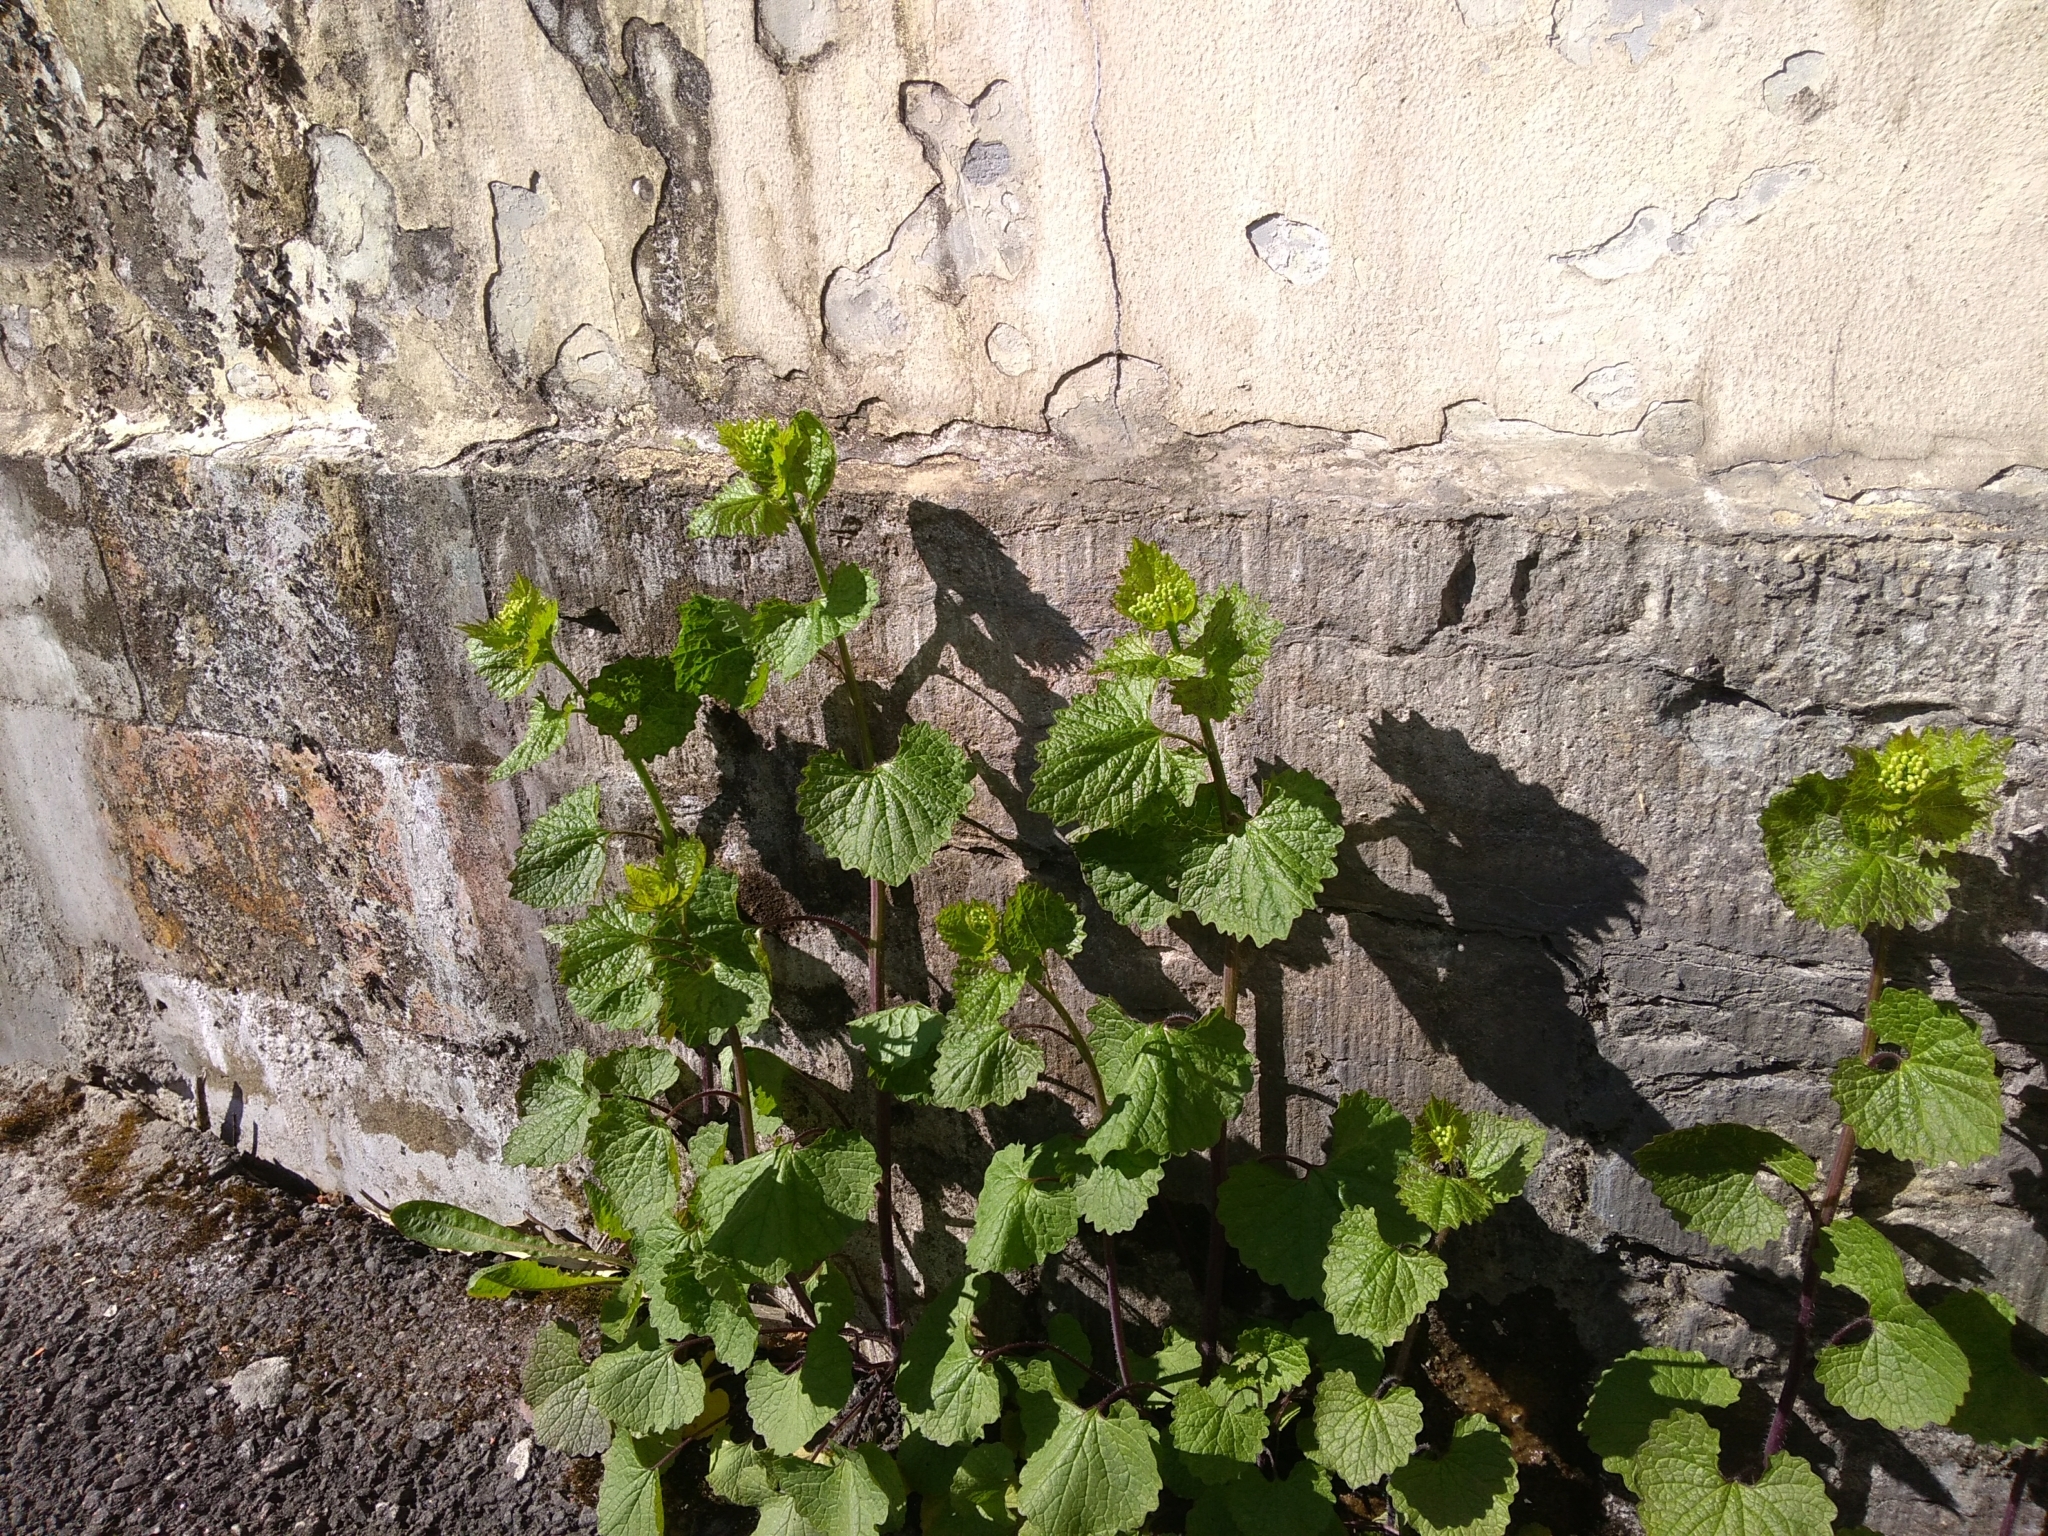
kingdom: Plantae
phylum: Tracheophyta
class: Magnoliopsida
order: Brassicales
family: Brassicaceae
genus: Alliaria
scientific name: Alliaria petiolata
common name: Garlic mustard
